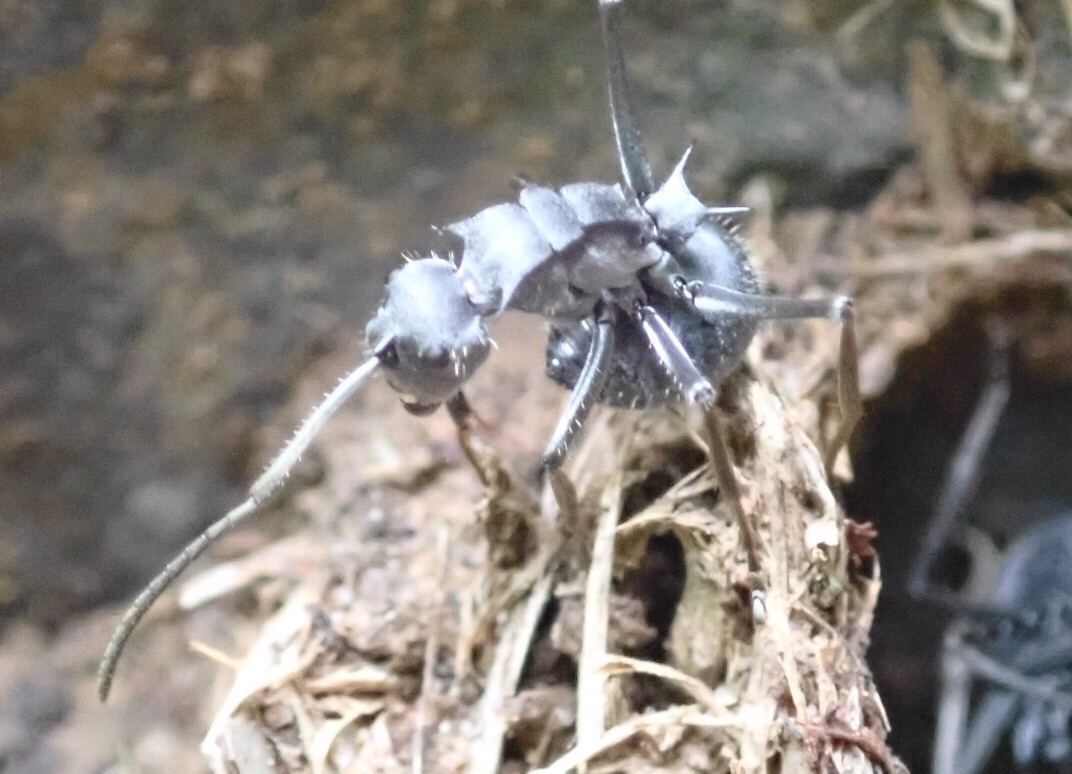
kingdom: Animalia
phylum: Arthropoda
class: Insecta
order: Hymenoptera
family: Formicidae
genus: Polyrhachis
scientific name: Polyrhachis schistacea
